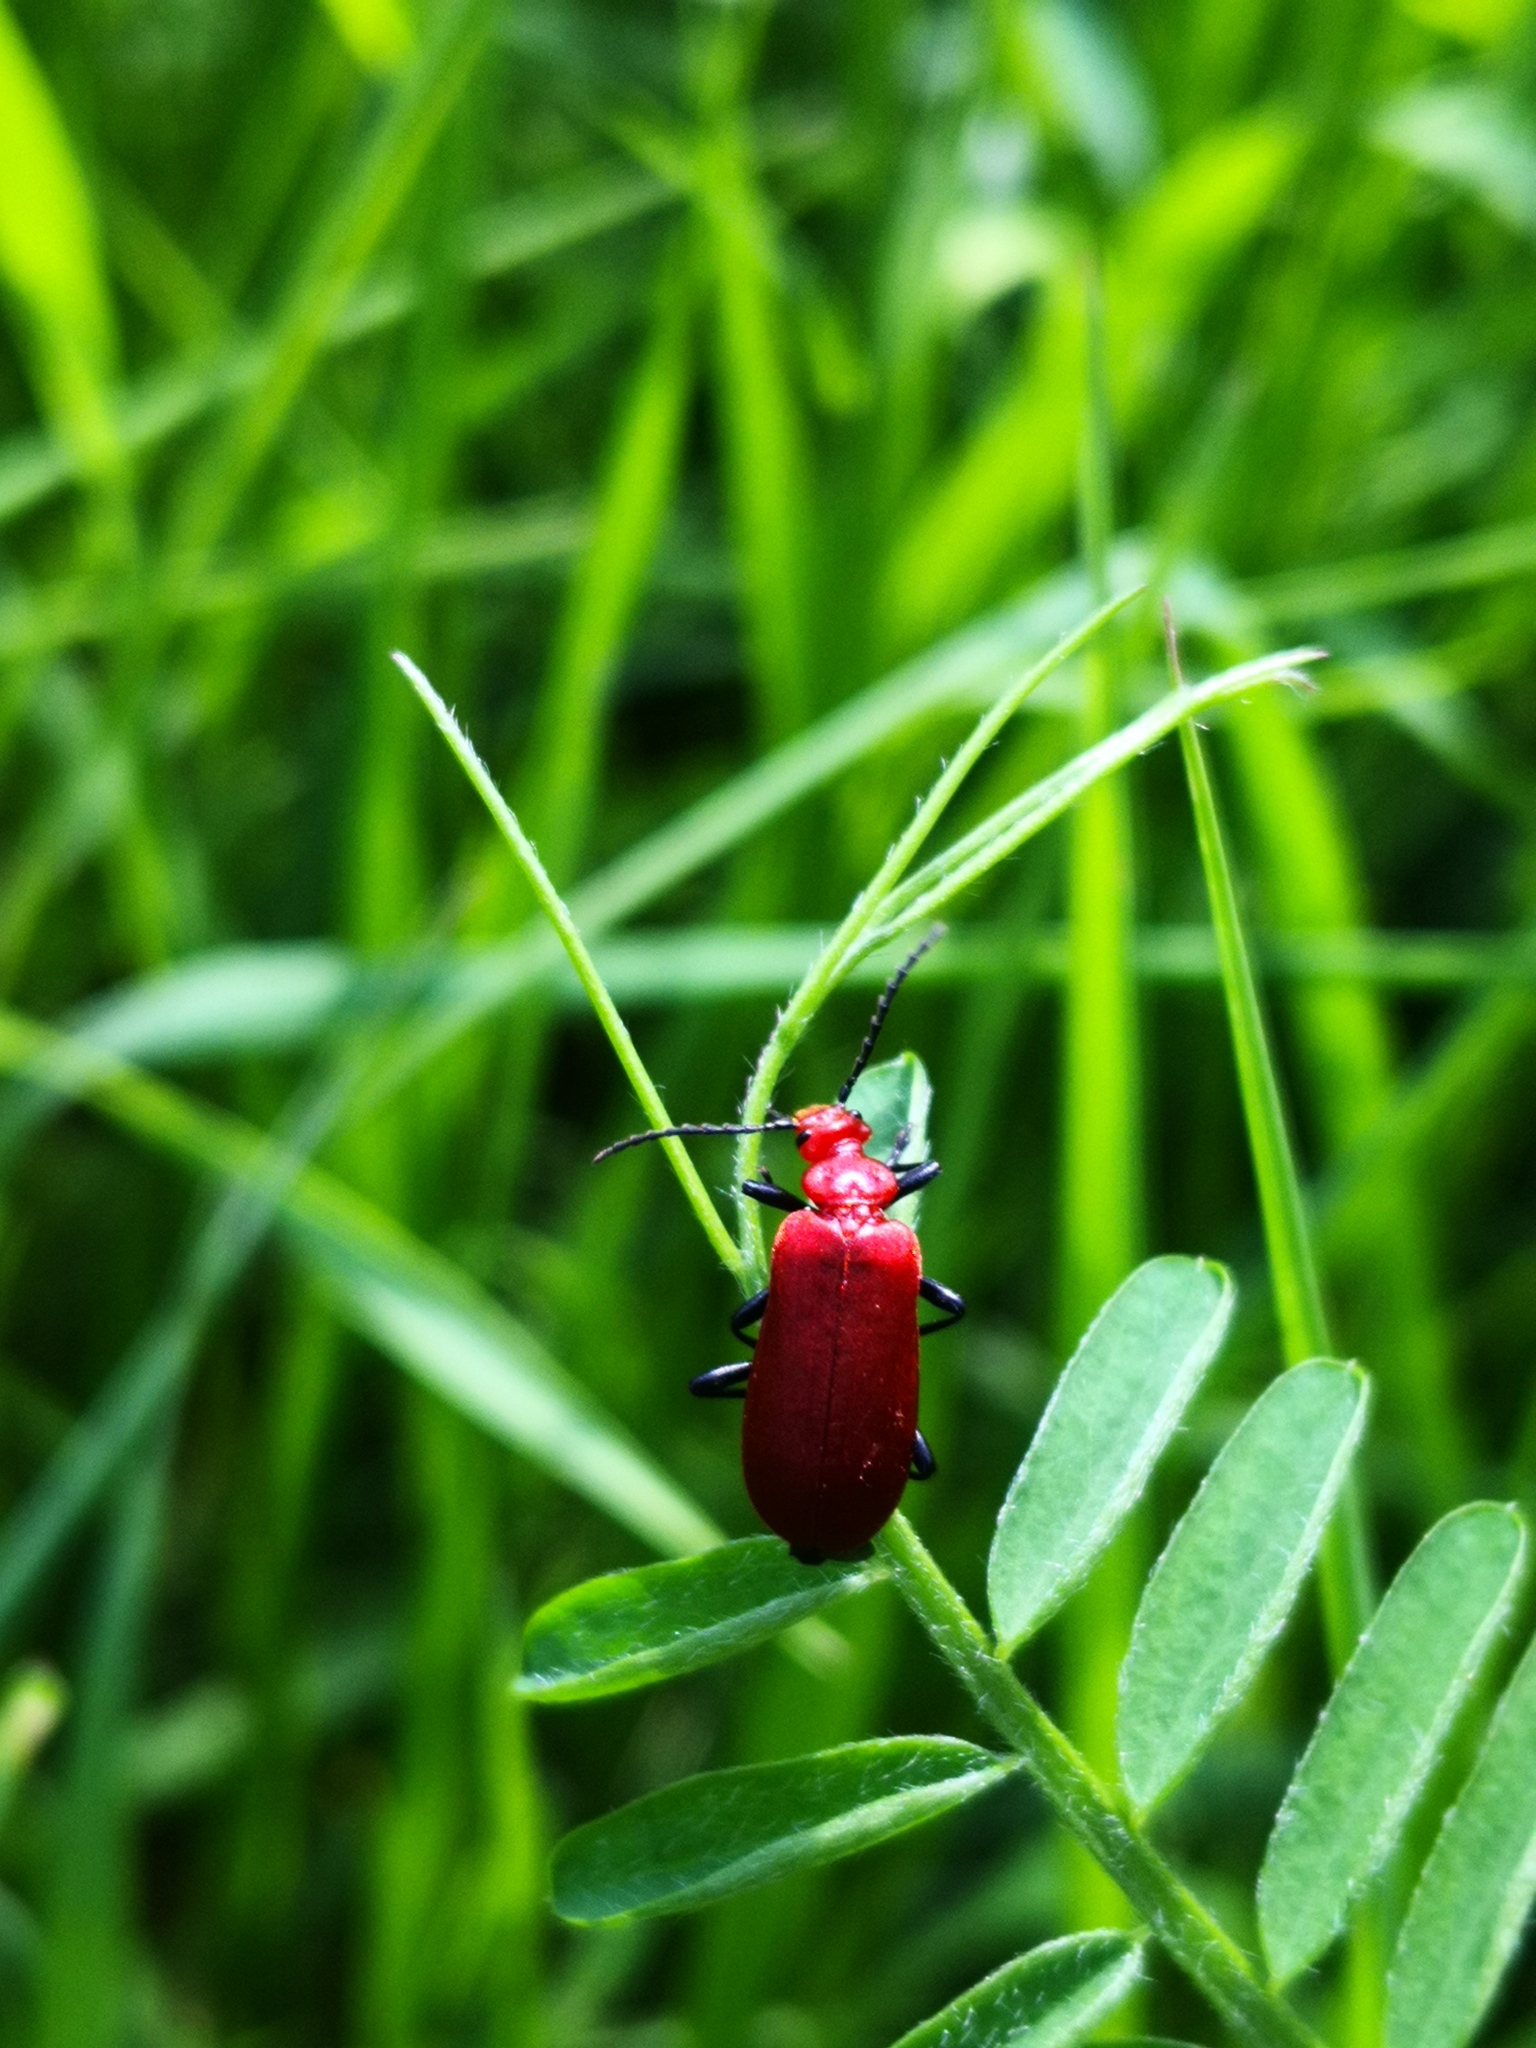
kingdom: Animalia
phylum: Arthropoda
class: Insecta
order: Coleoptera
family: Pyrochroidae
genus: Pyrochroa
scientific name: Pyrochroa serraticornis
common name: Red-headed cardinal beetle
